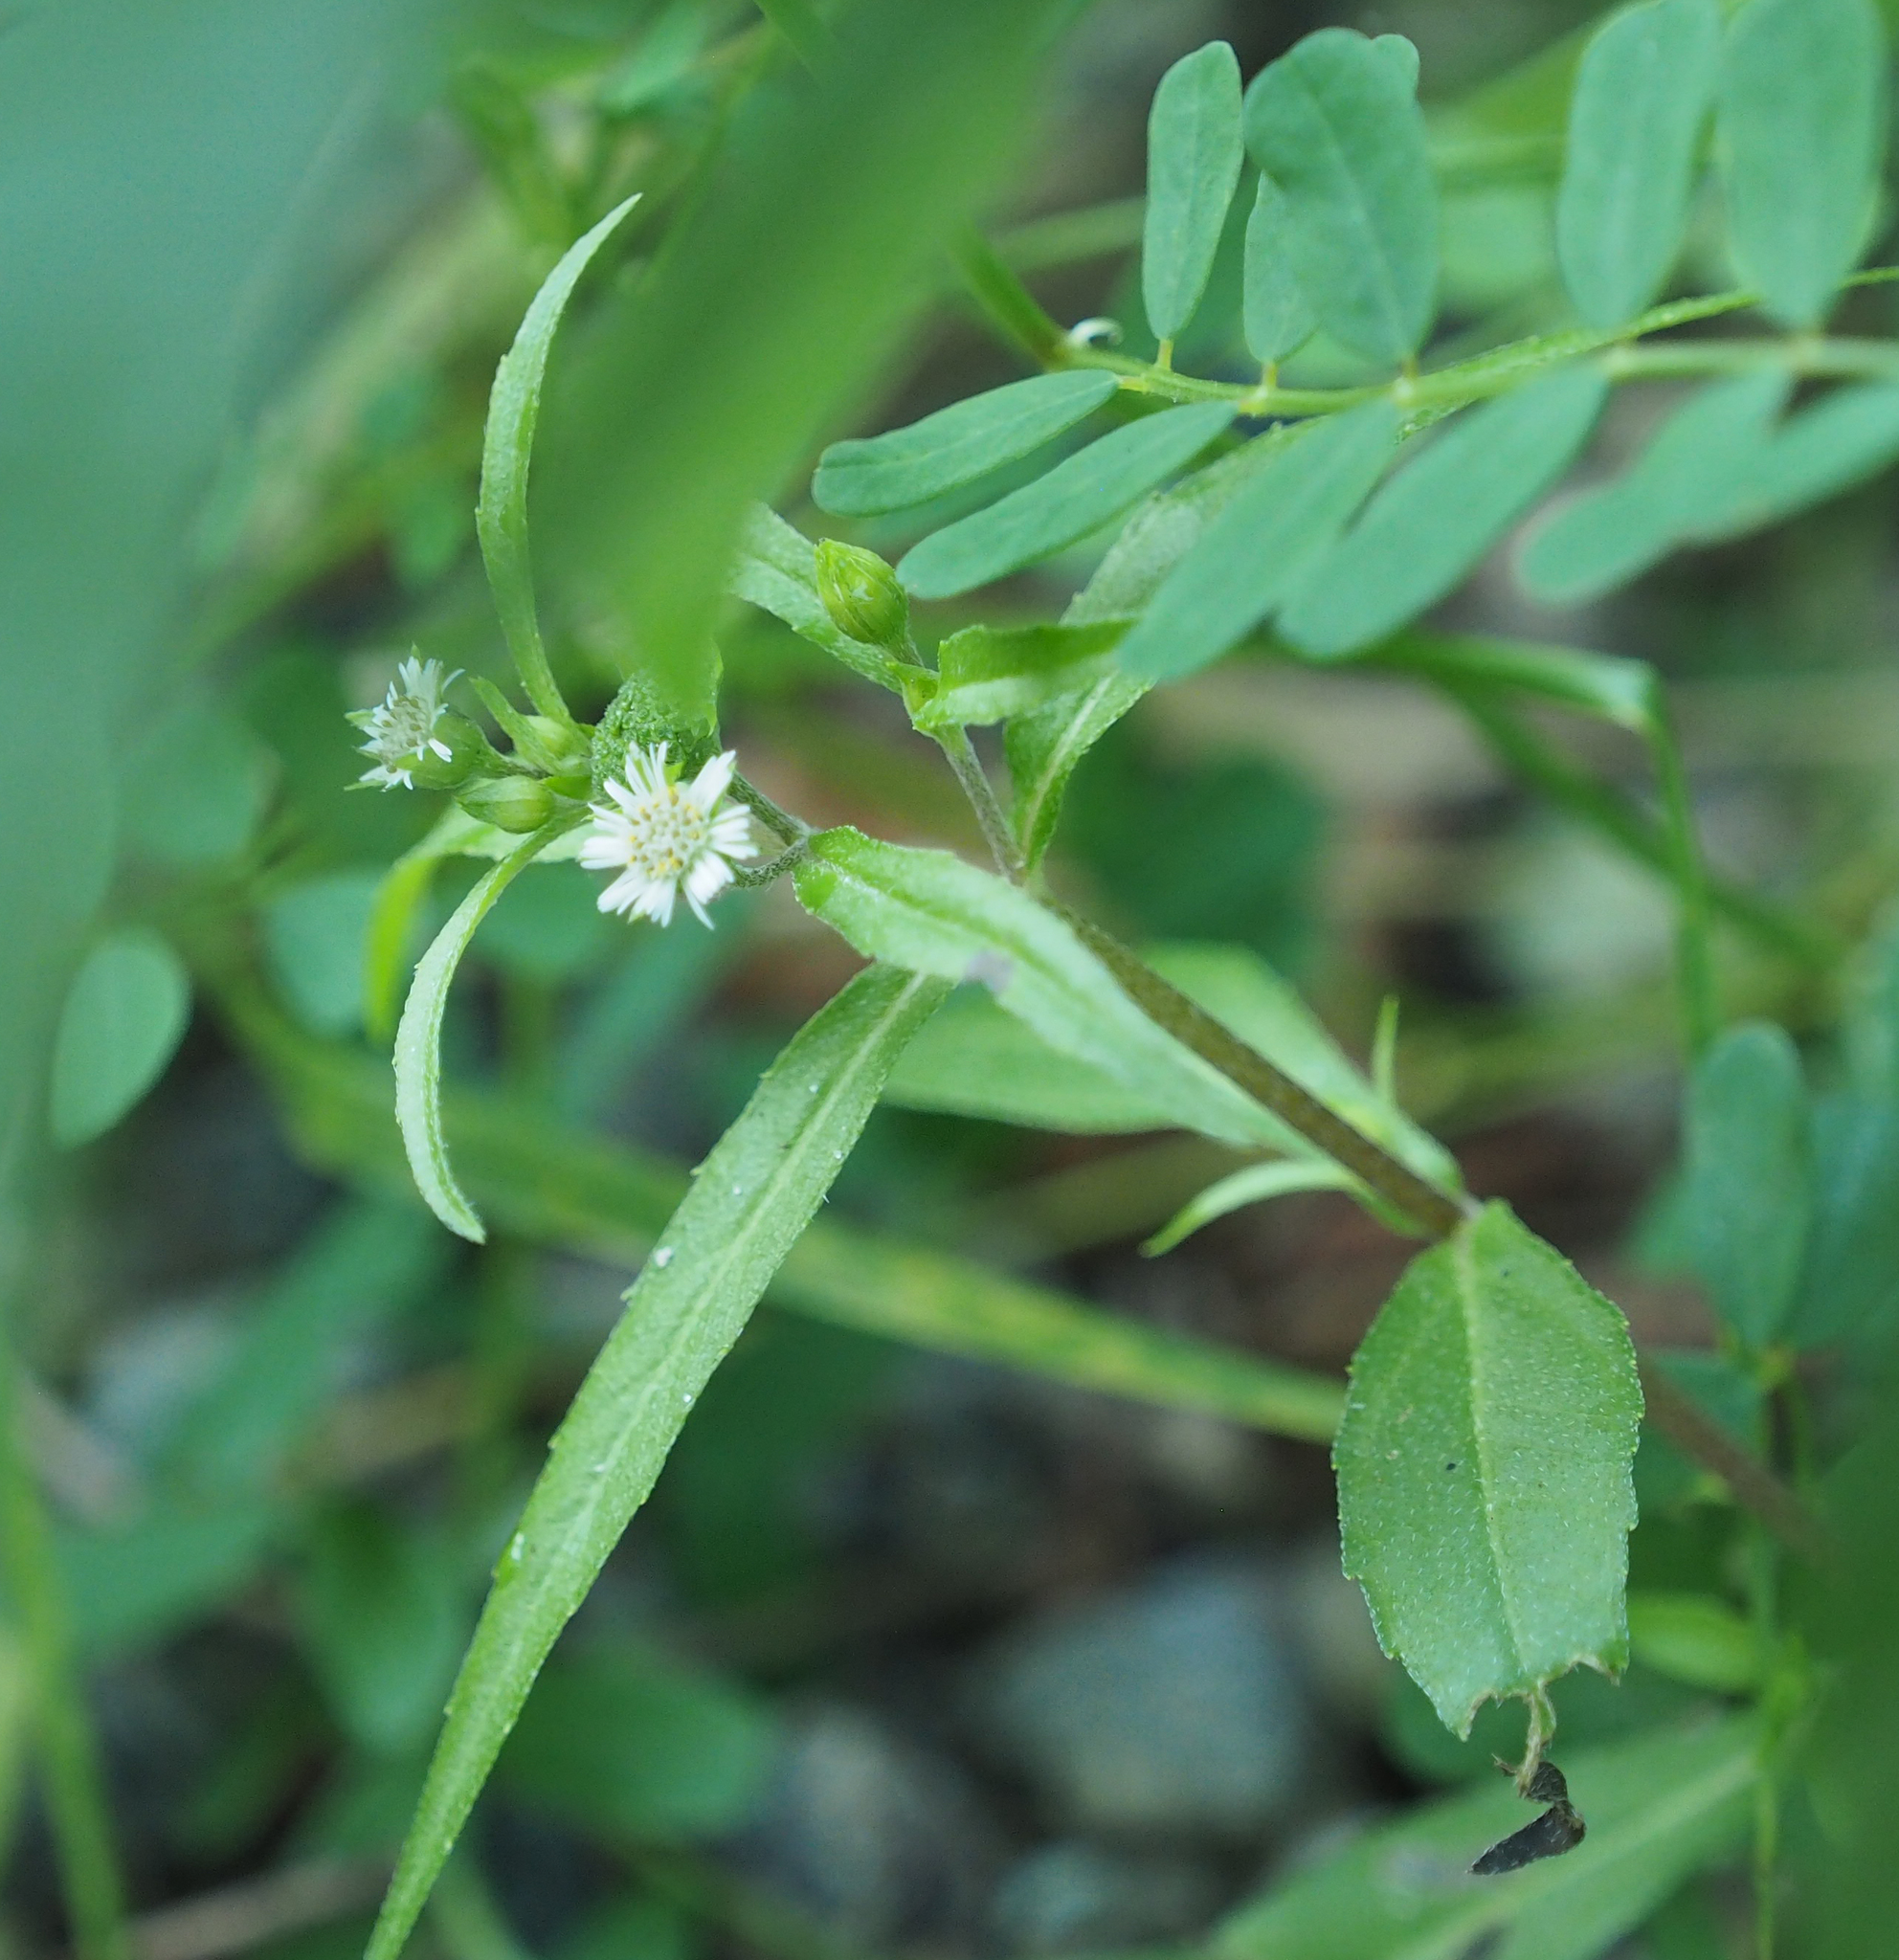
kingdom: Plantae
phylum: Tracheophyta
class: Magnoliopsida
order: Asterales
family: Asteraceae
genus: Eclipta
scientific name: Eclipta prostrata
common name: False daisy
